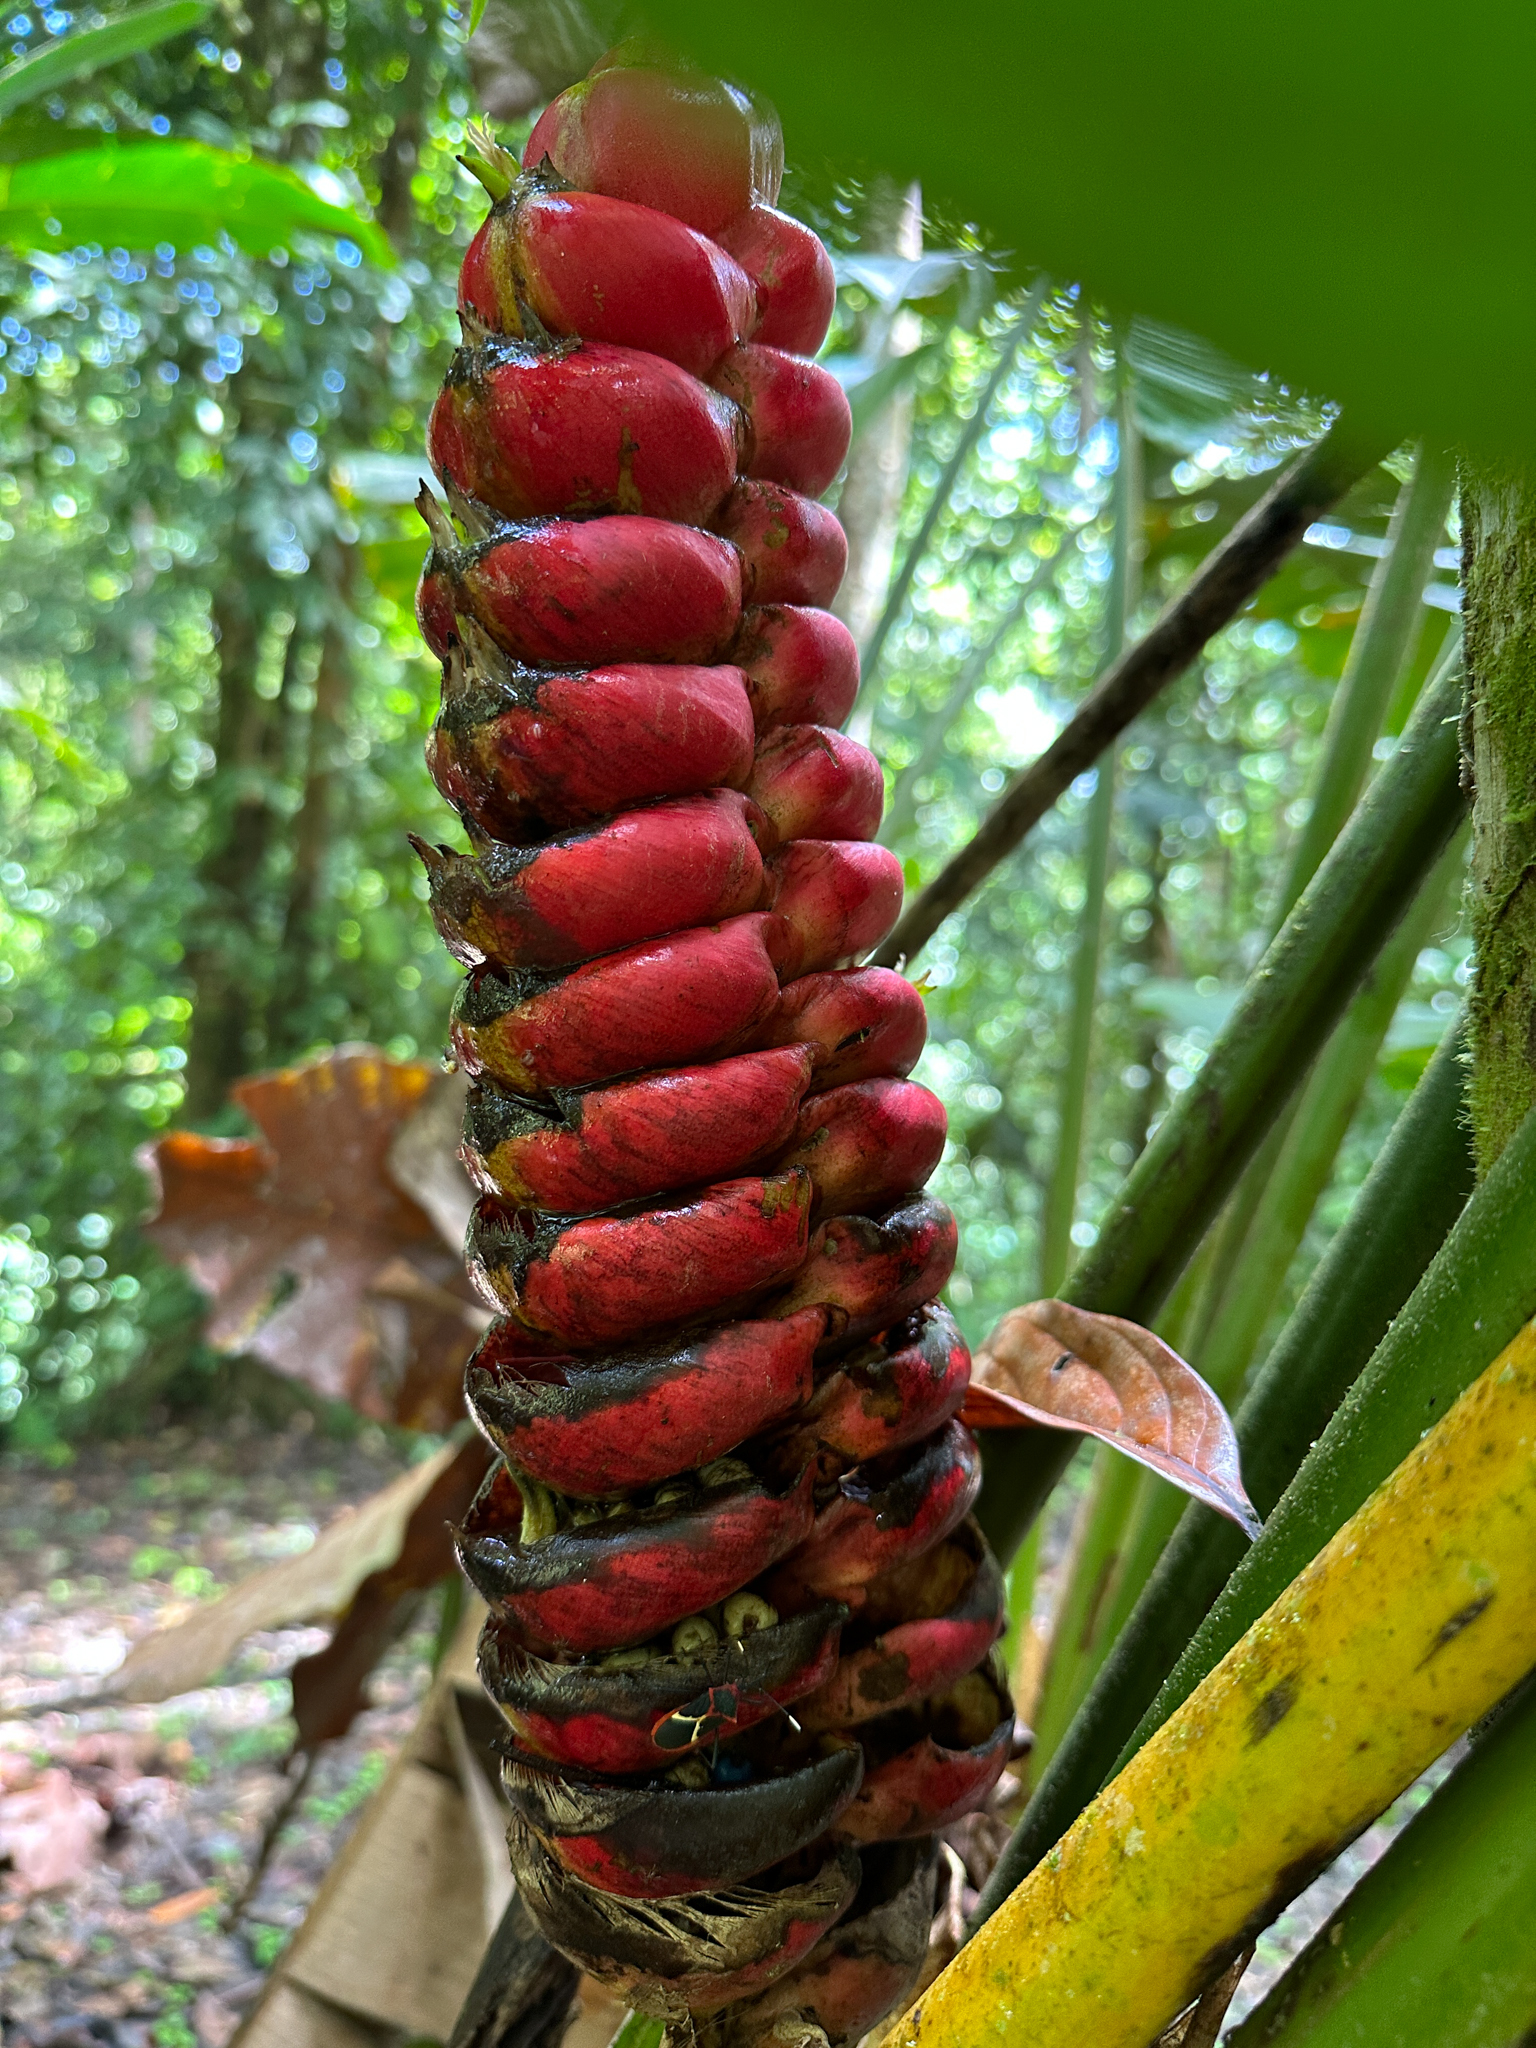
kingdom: Plantae
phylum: Tracheophyta
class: Liliopsida
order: Zingiberales
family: Heliconiaceae
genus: Heliconia
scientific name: Heliconia imbricata
